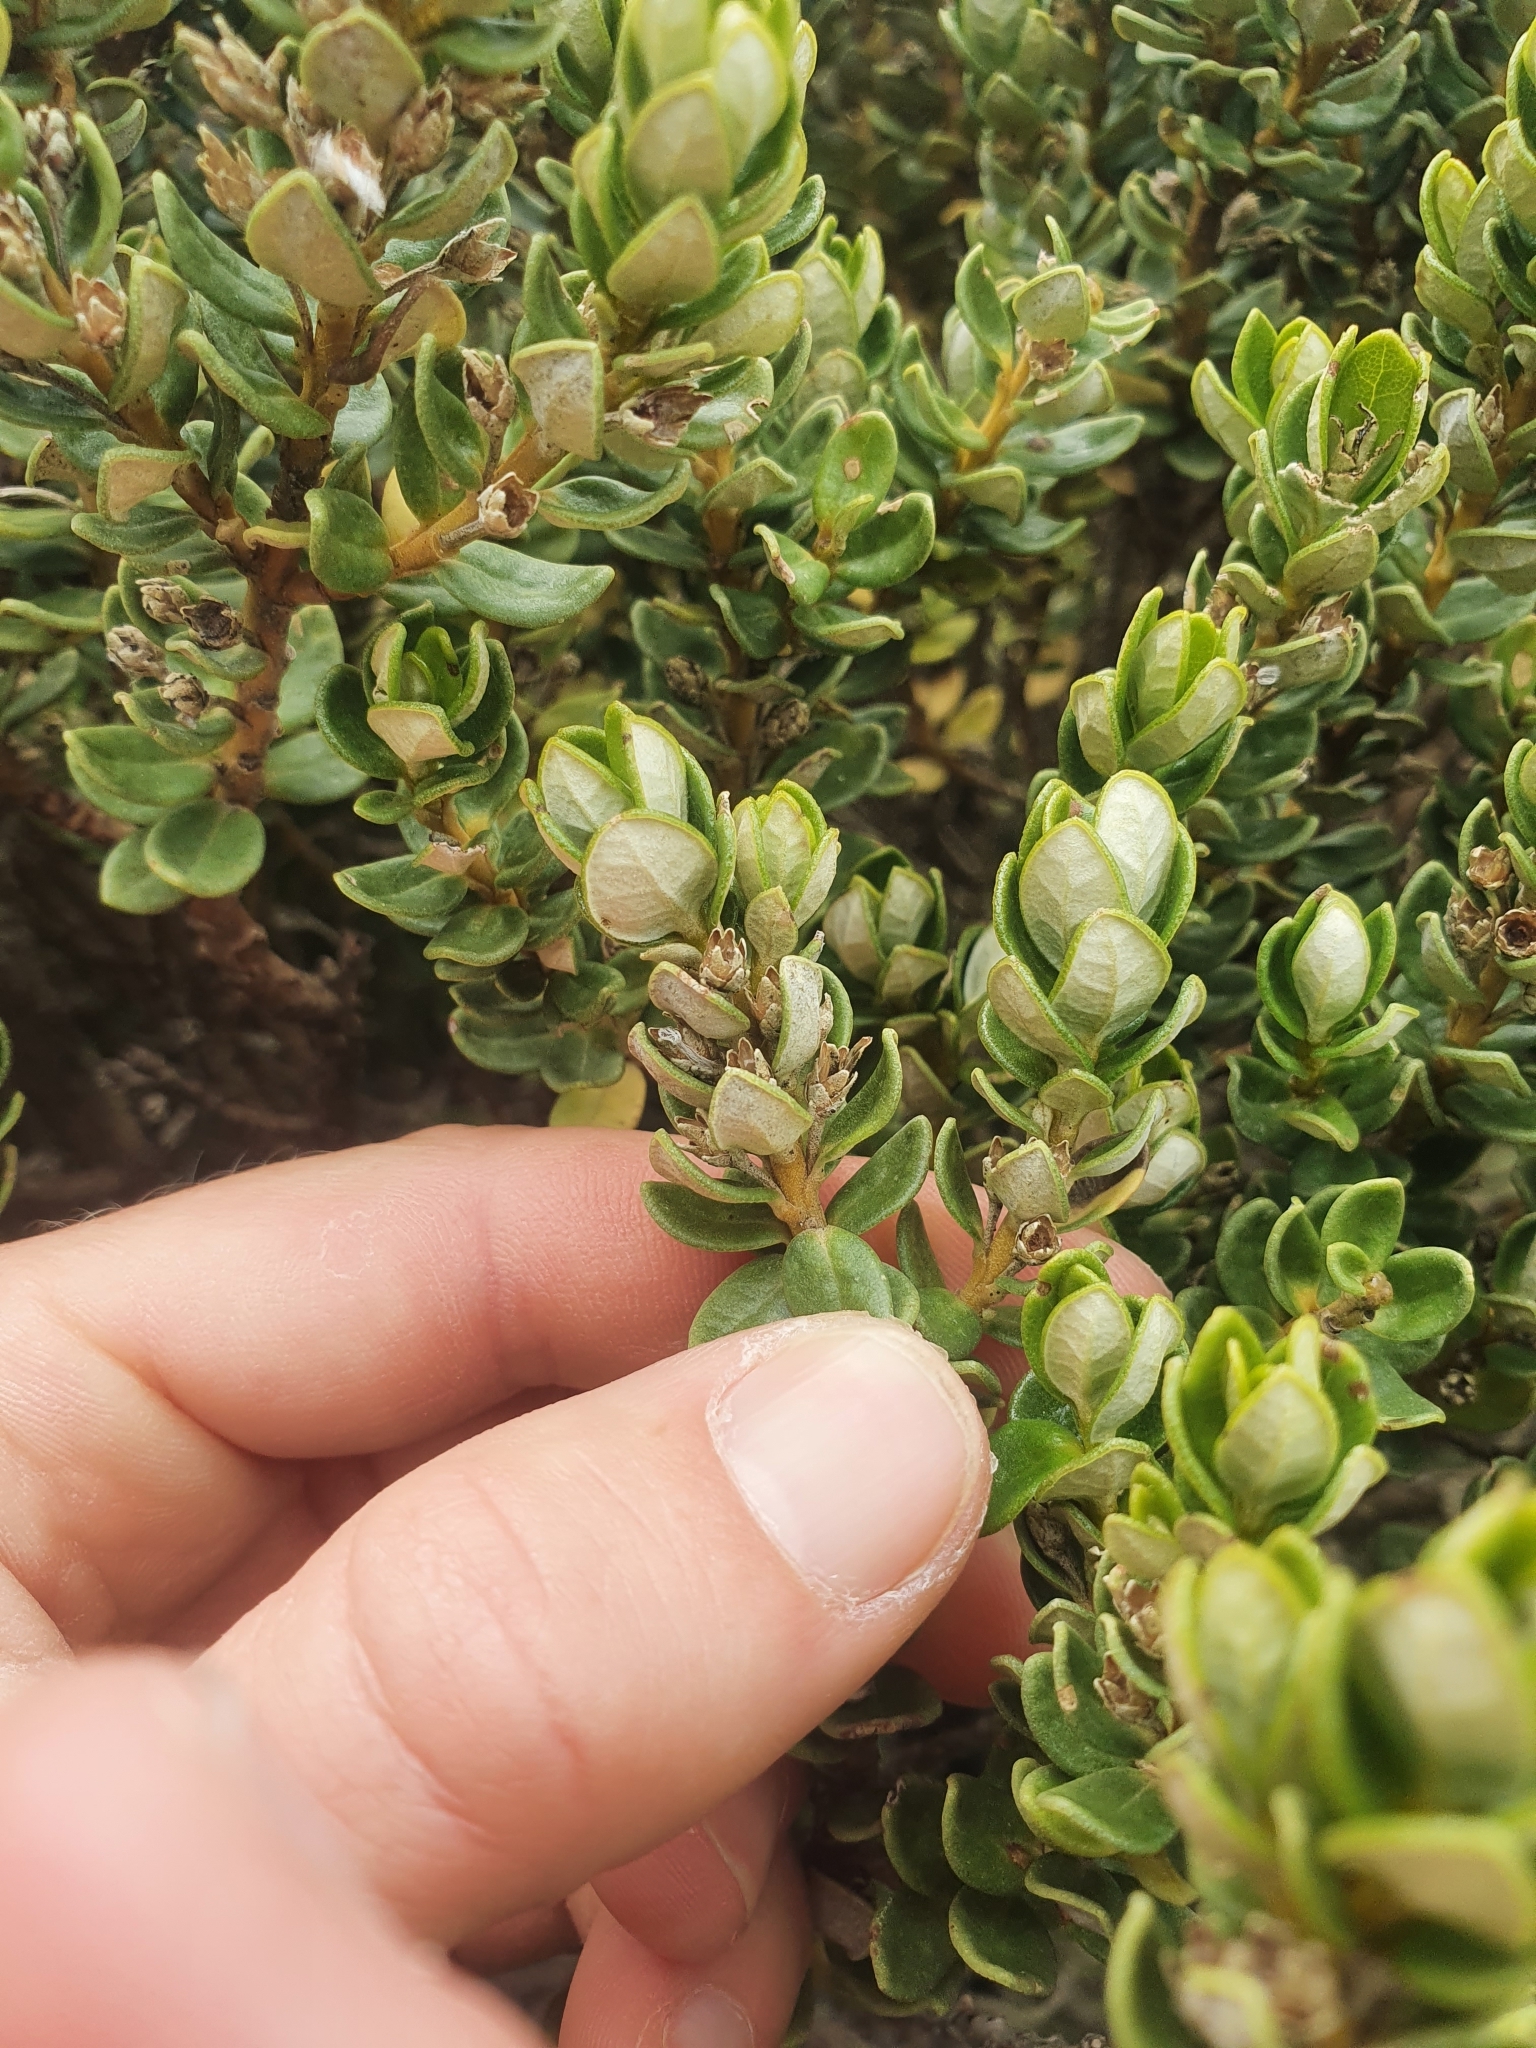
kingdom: Plantae
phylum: Tracheophyta
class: Magnoliopsida
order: Asterales
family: Asteraceae
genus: Olearia
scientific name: Olearia nummularifolia
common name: Sticky daisybush
